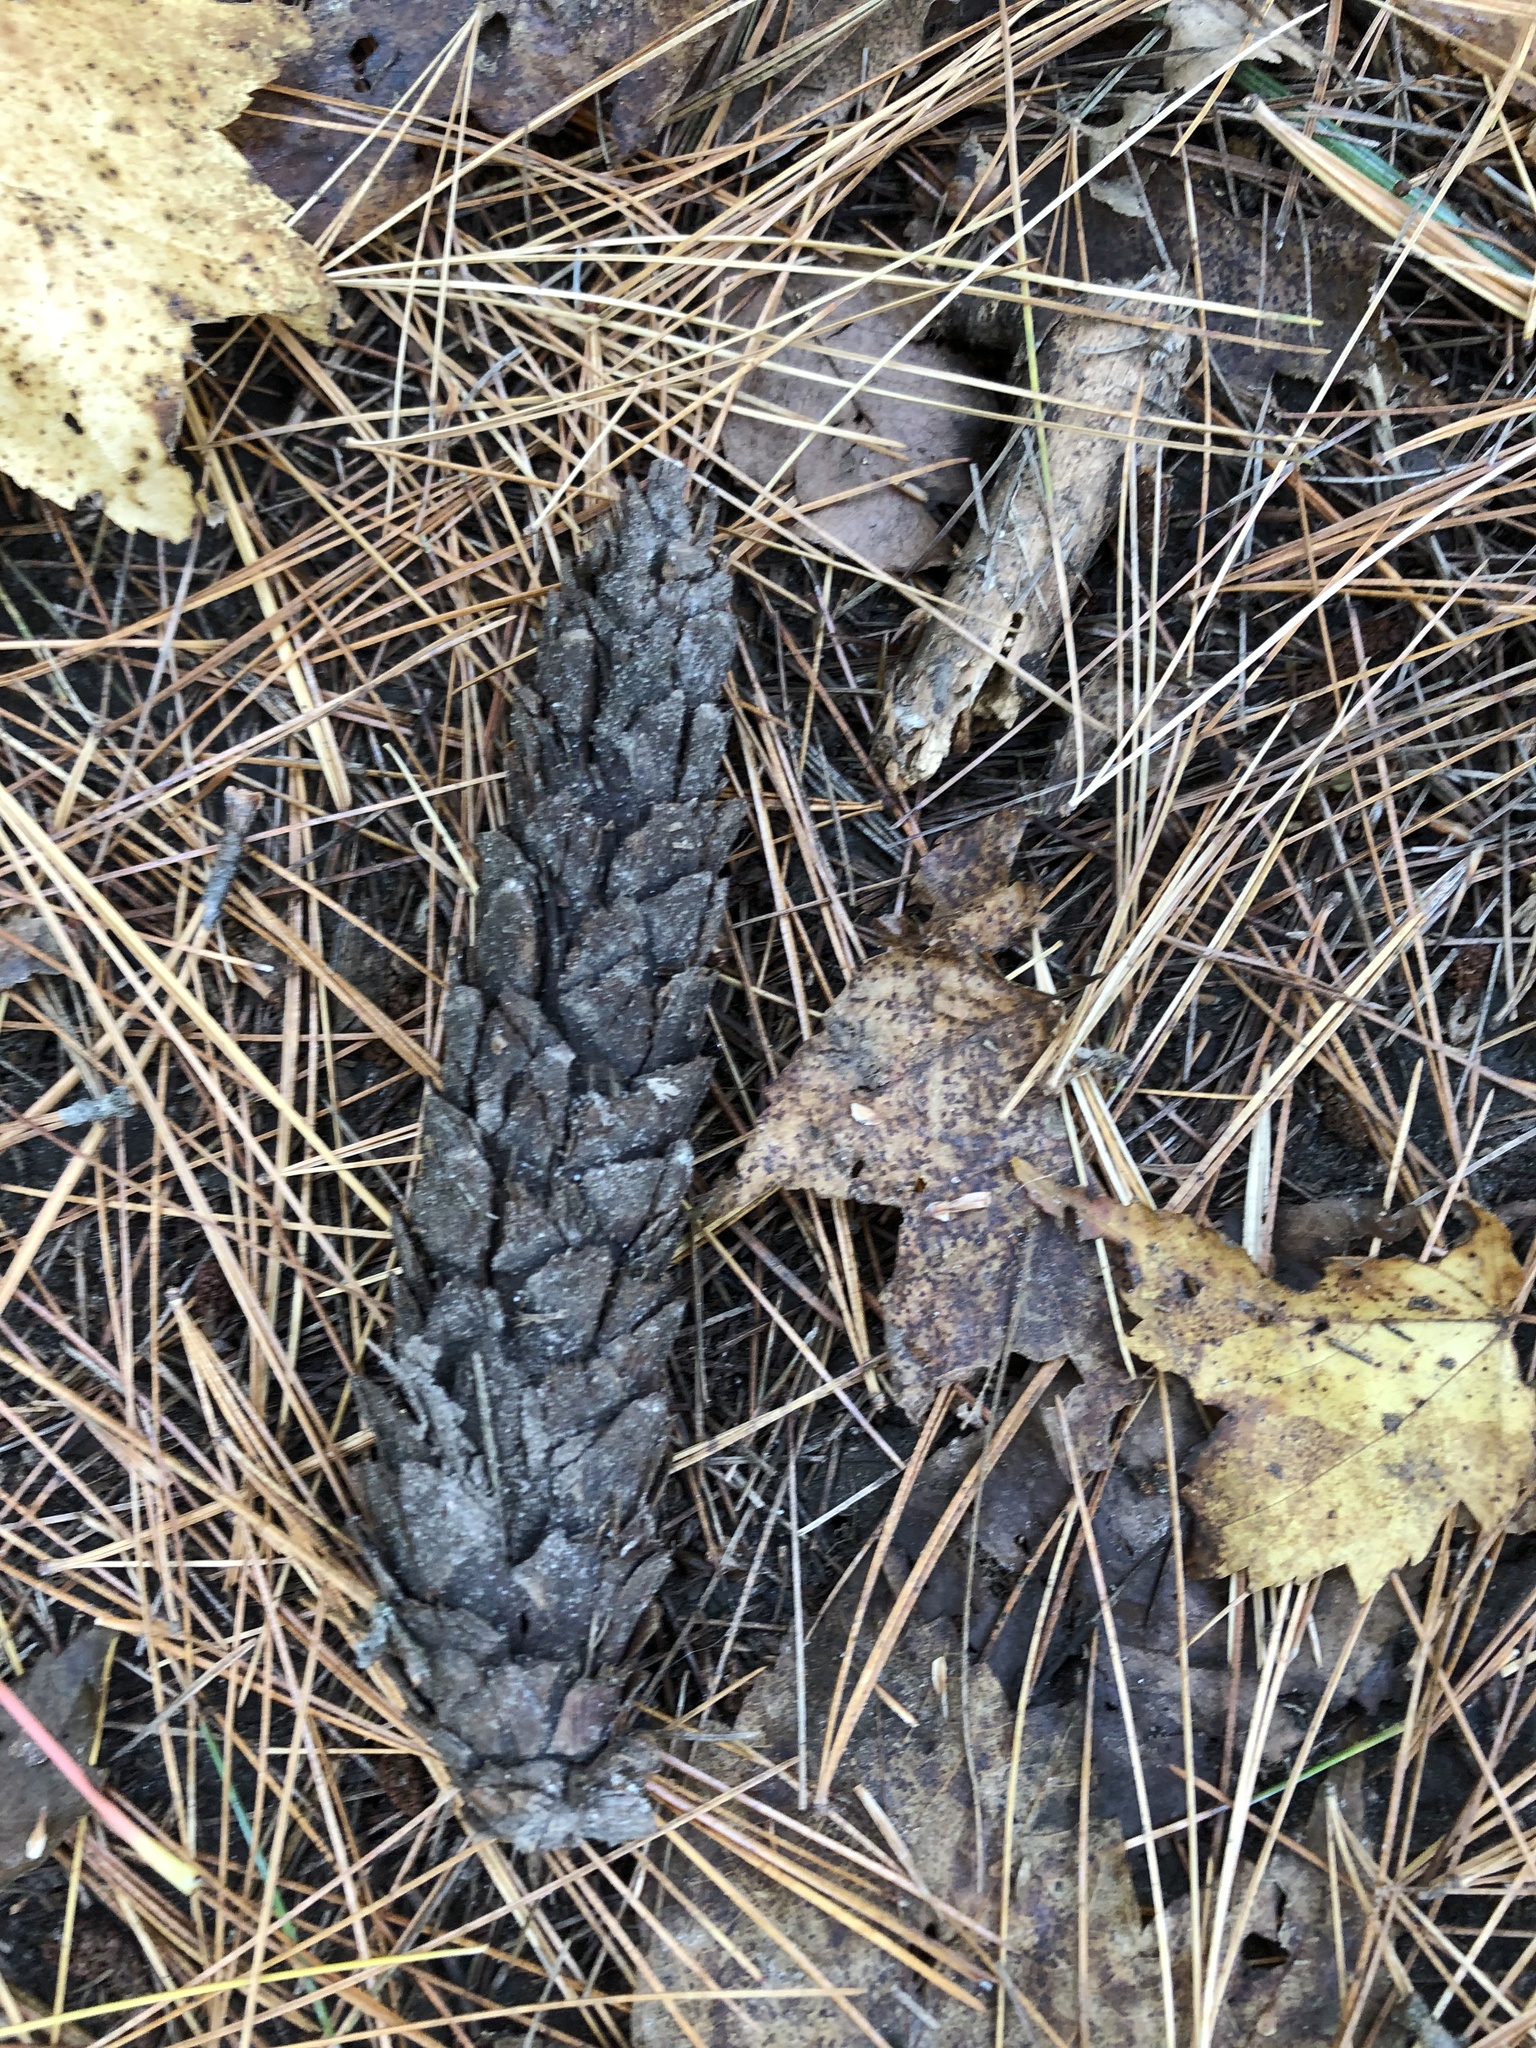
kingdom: Plantae
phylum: Tracheophyta
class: Pinopsida
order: Pinales
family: Pinaceae
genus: Pinus
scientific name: Pinus strobus
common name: Weymouth pine
